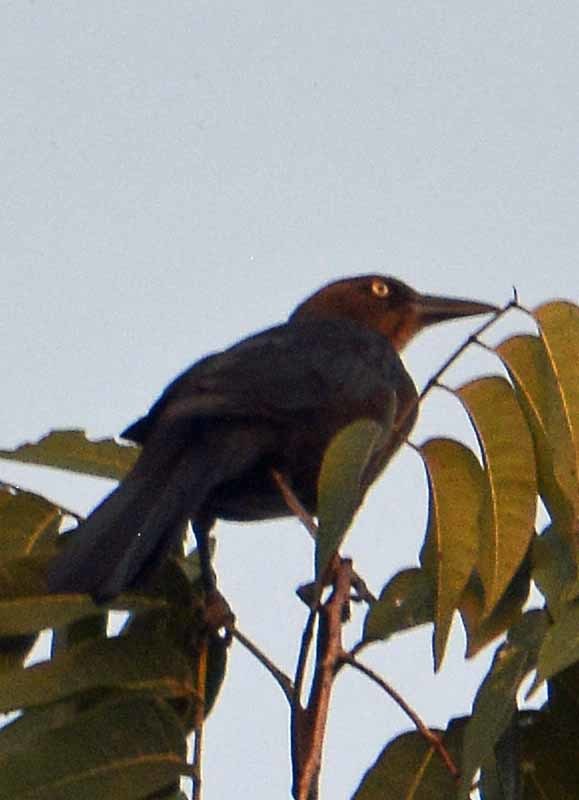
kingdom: Animalia
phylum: Chordata
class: Aves
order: Passeriformes
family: Icteridae
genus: Quiscalus
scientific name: Quiscalus mexicanus
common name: Great-tailed grackle
